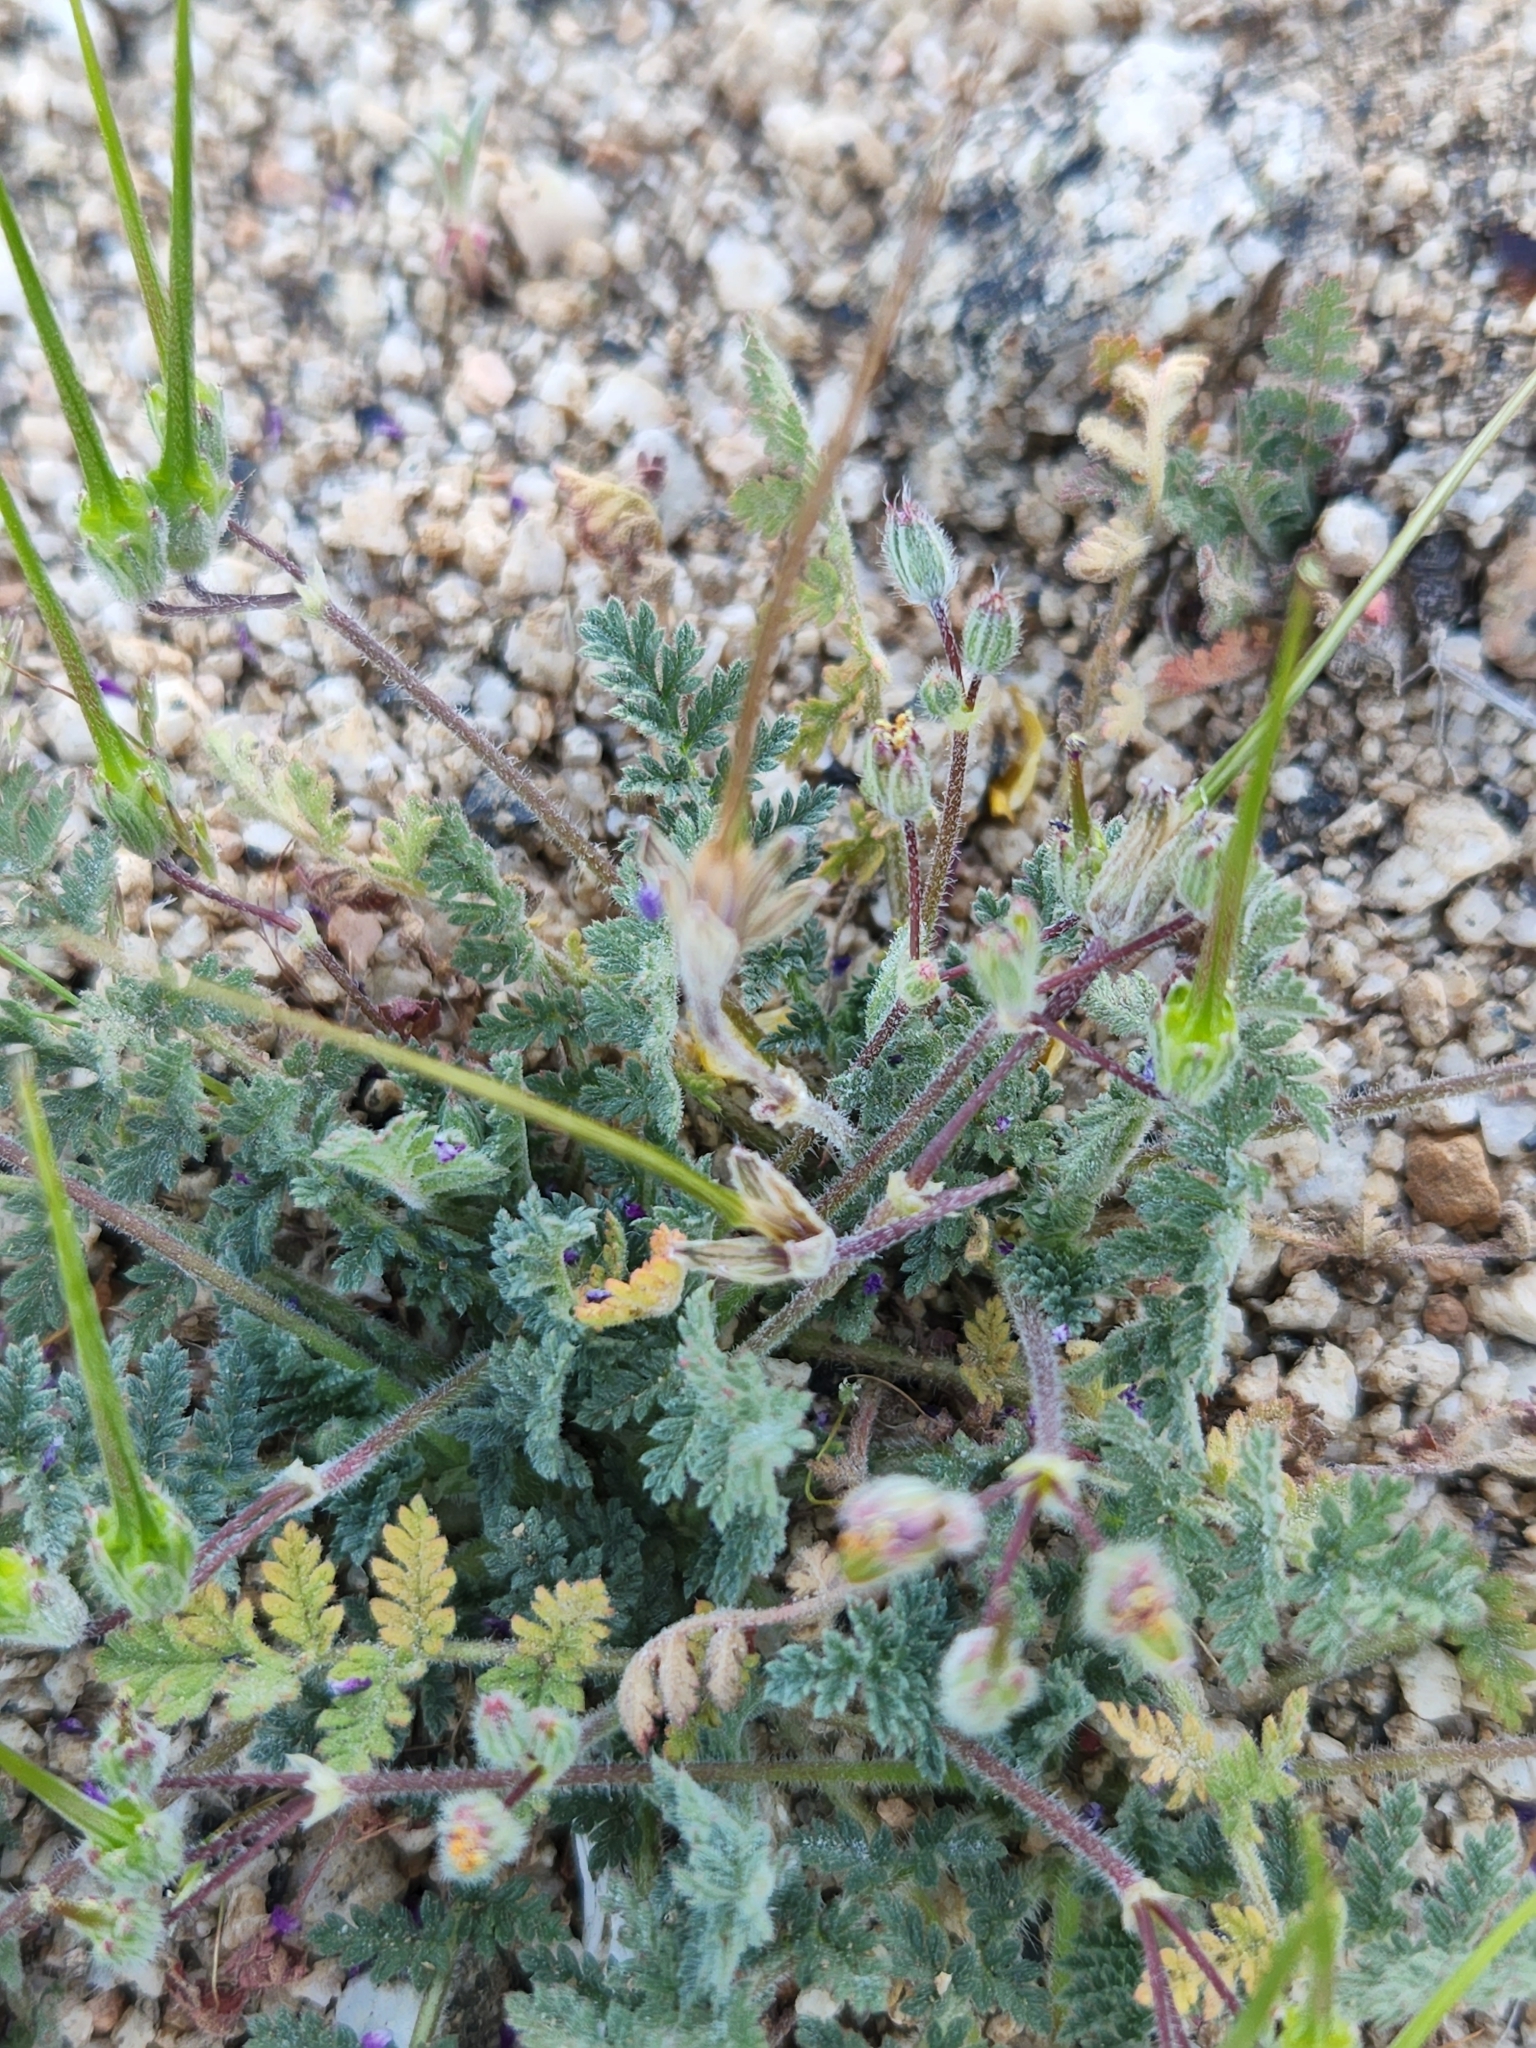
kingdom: Plantae
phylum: Tracheophyta
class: Magnoliopsida
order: Geraniales
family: Geraniaceae
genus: Erodium
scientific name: Erodium cicutarium
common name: Common stork's-bill
